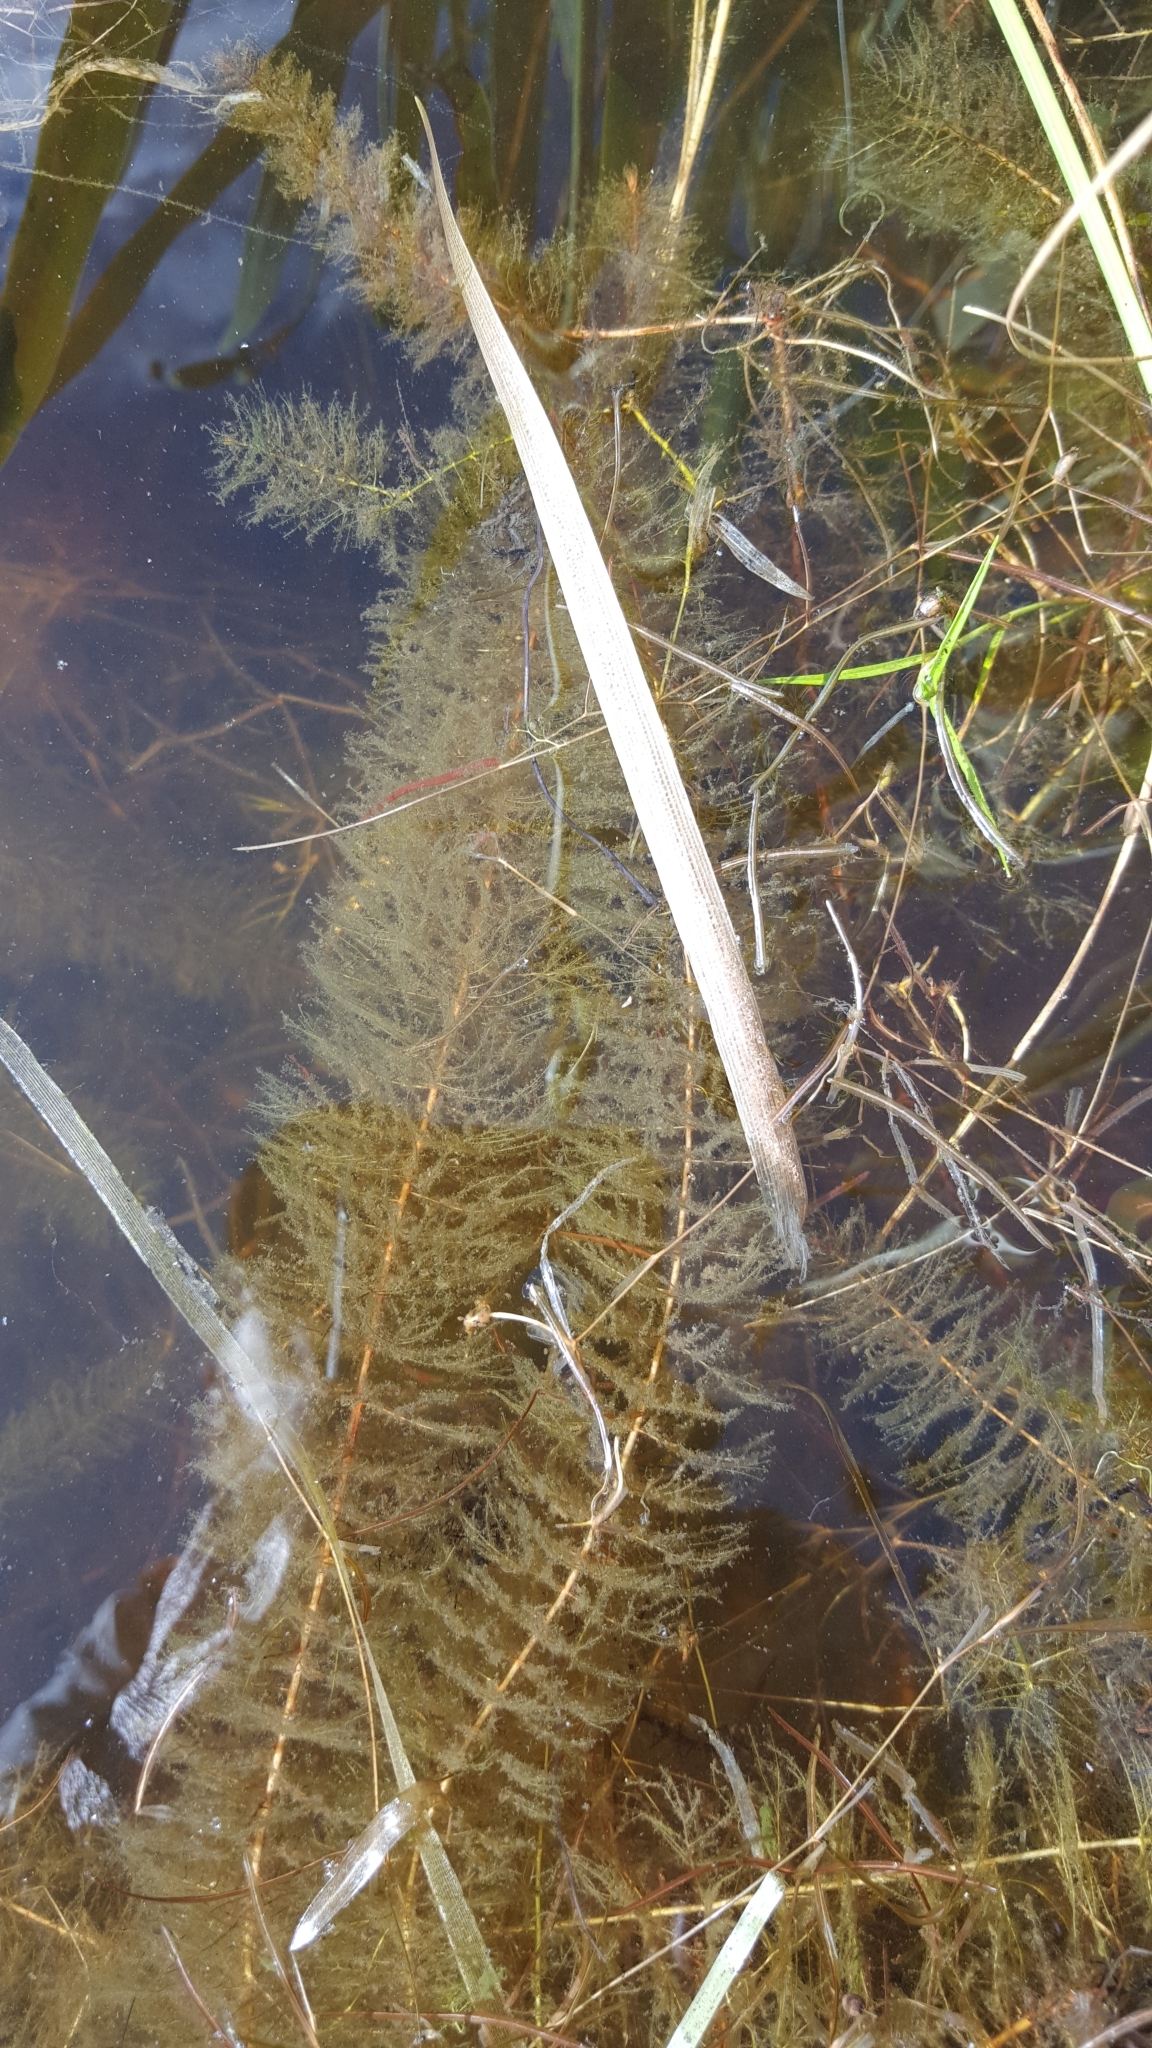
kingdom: Plantae
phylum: Tracheophyta
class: Magnoliopsida
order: Saxifragales
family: Haloragaceae
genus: Myriophyllum
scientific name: Myriophyllum farwellii
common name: Farwell's water-milfoil
